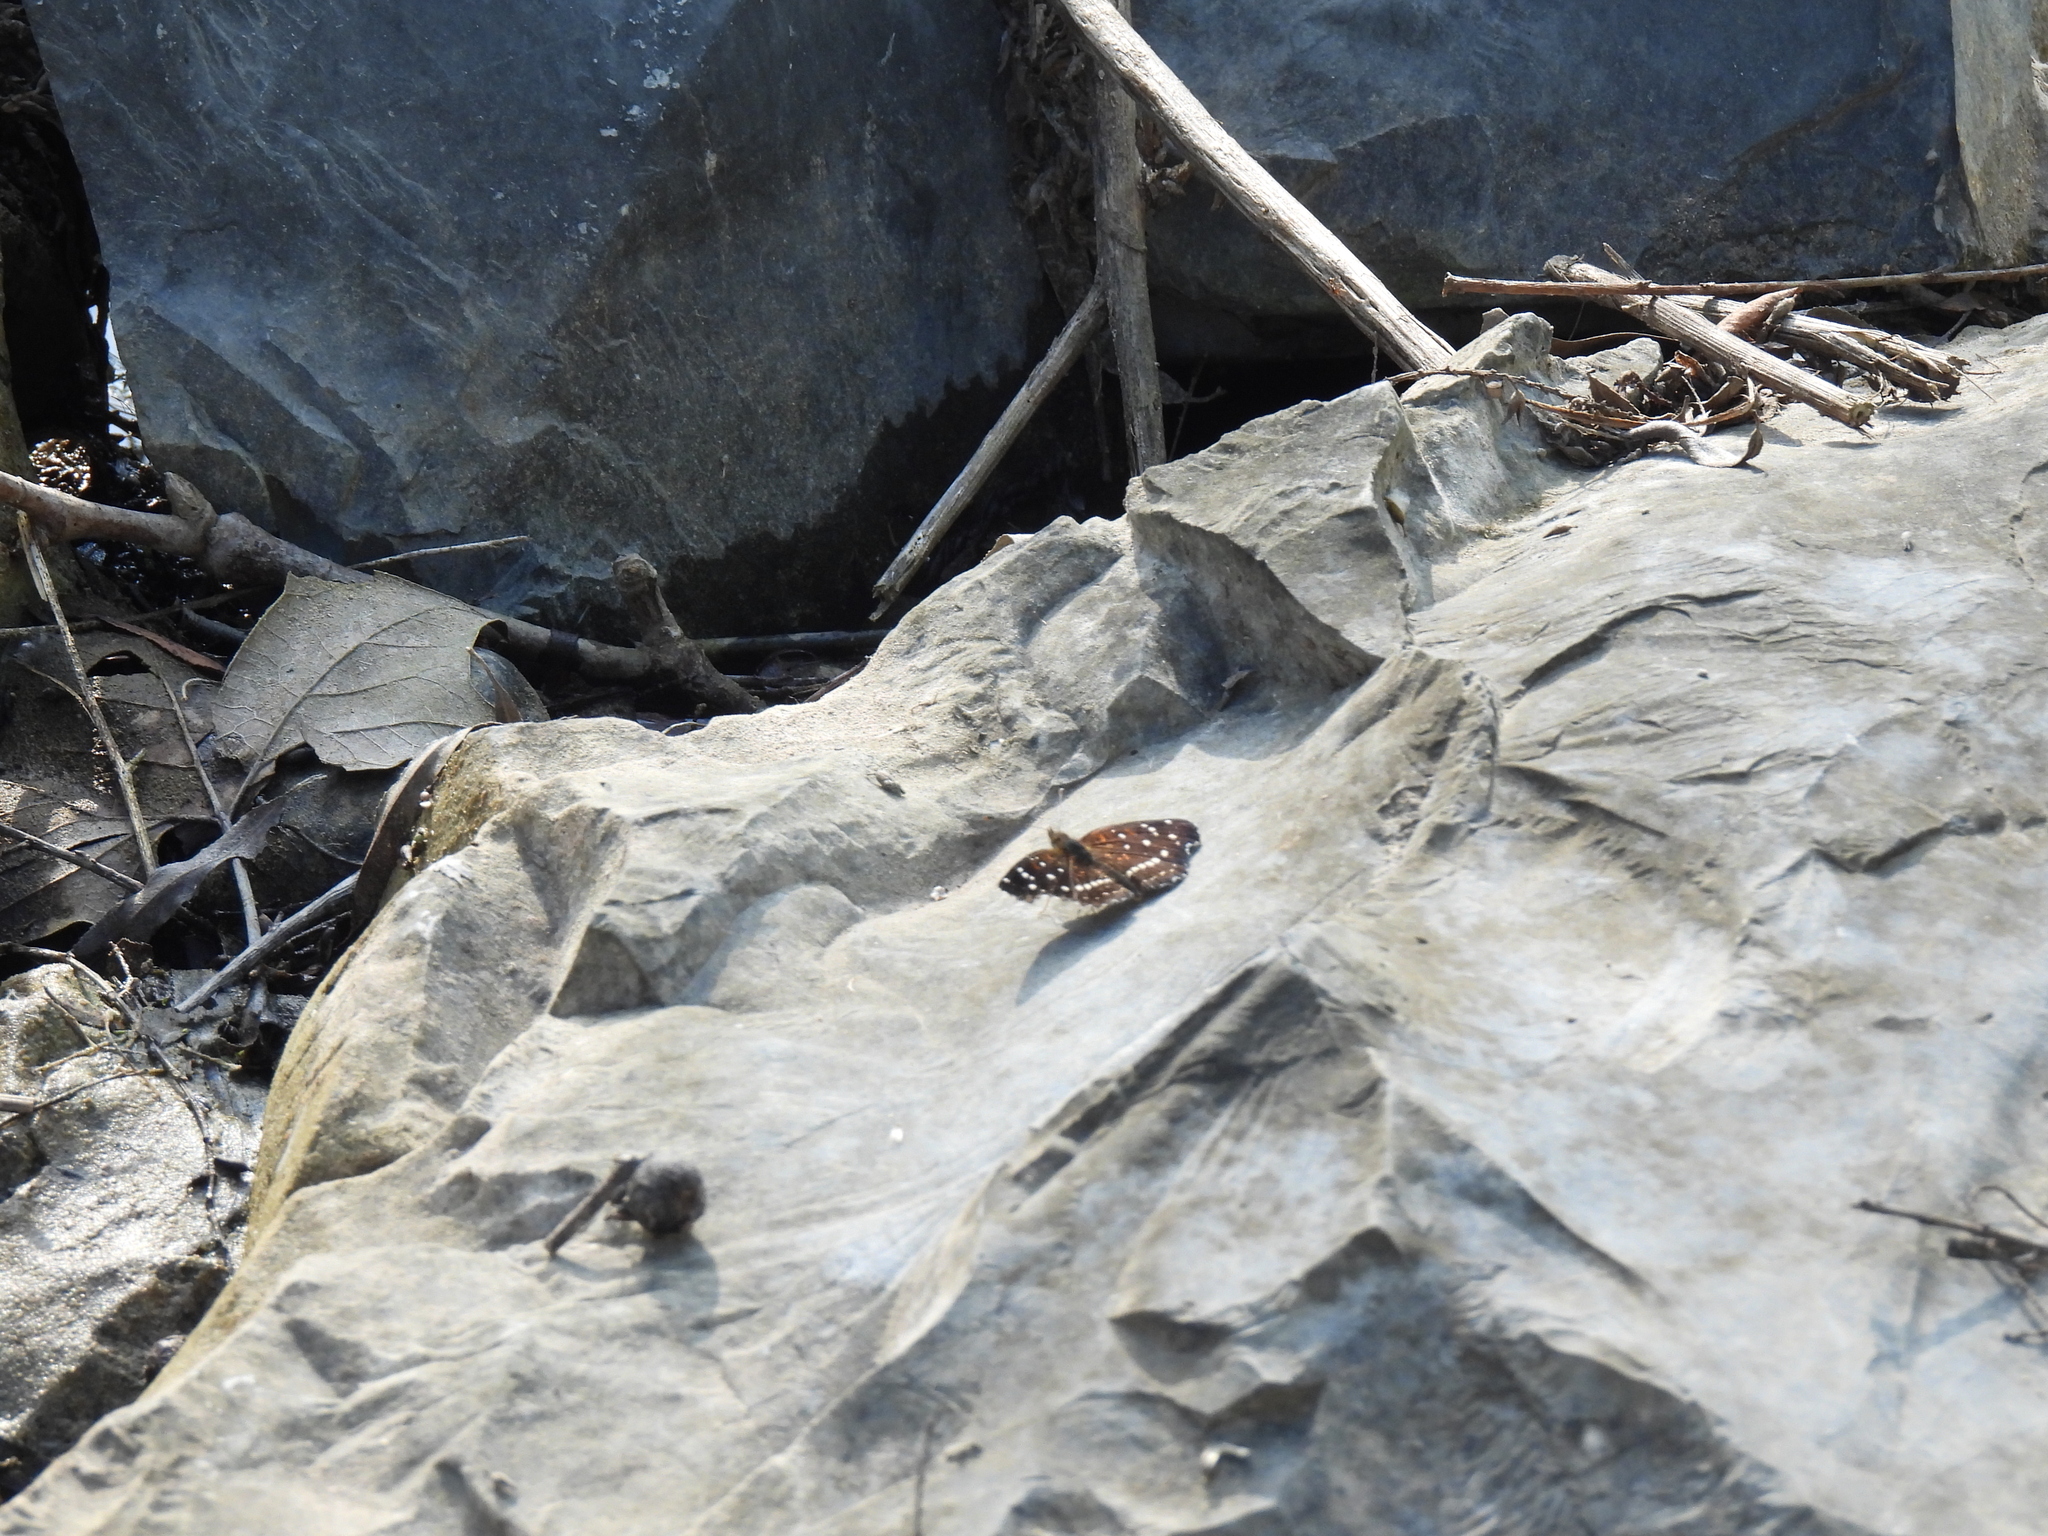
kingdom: Animalia
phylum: Arthropoda
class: Insecta
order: Lepidoptera
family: Nymphalidae
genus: Anthanassa
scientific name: Anthanassa texana
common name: Texan crescent
